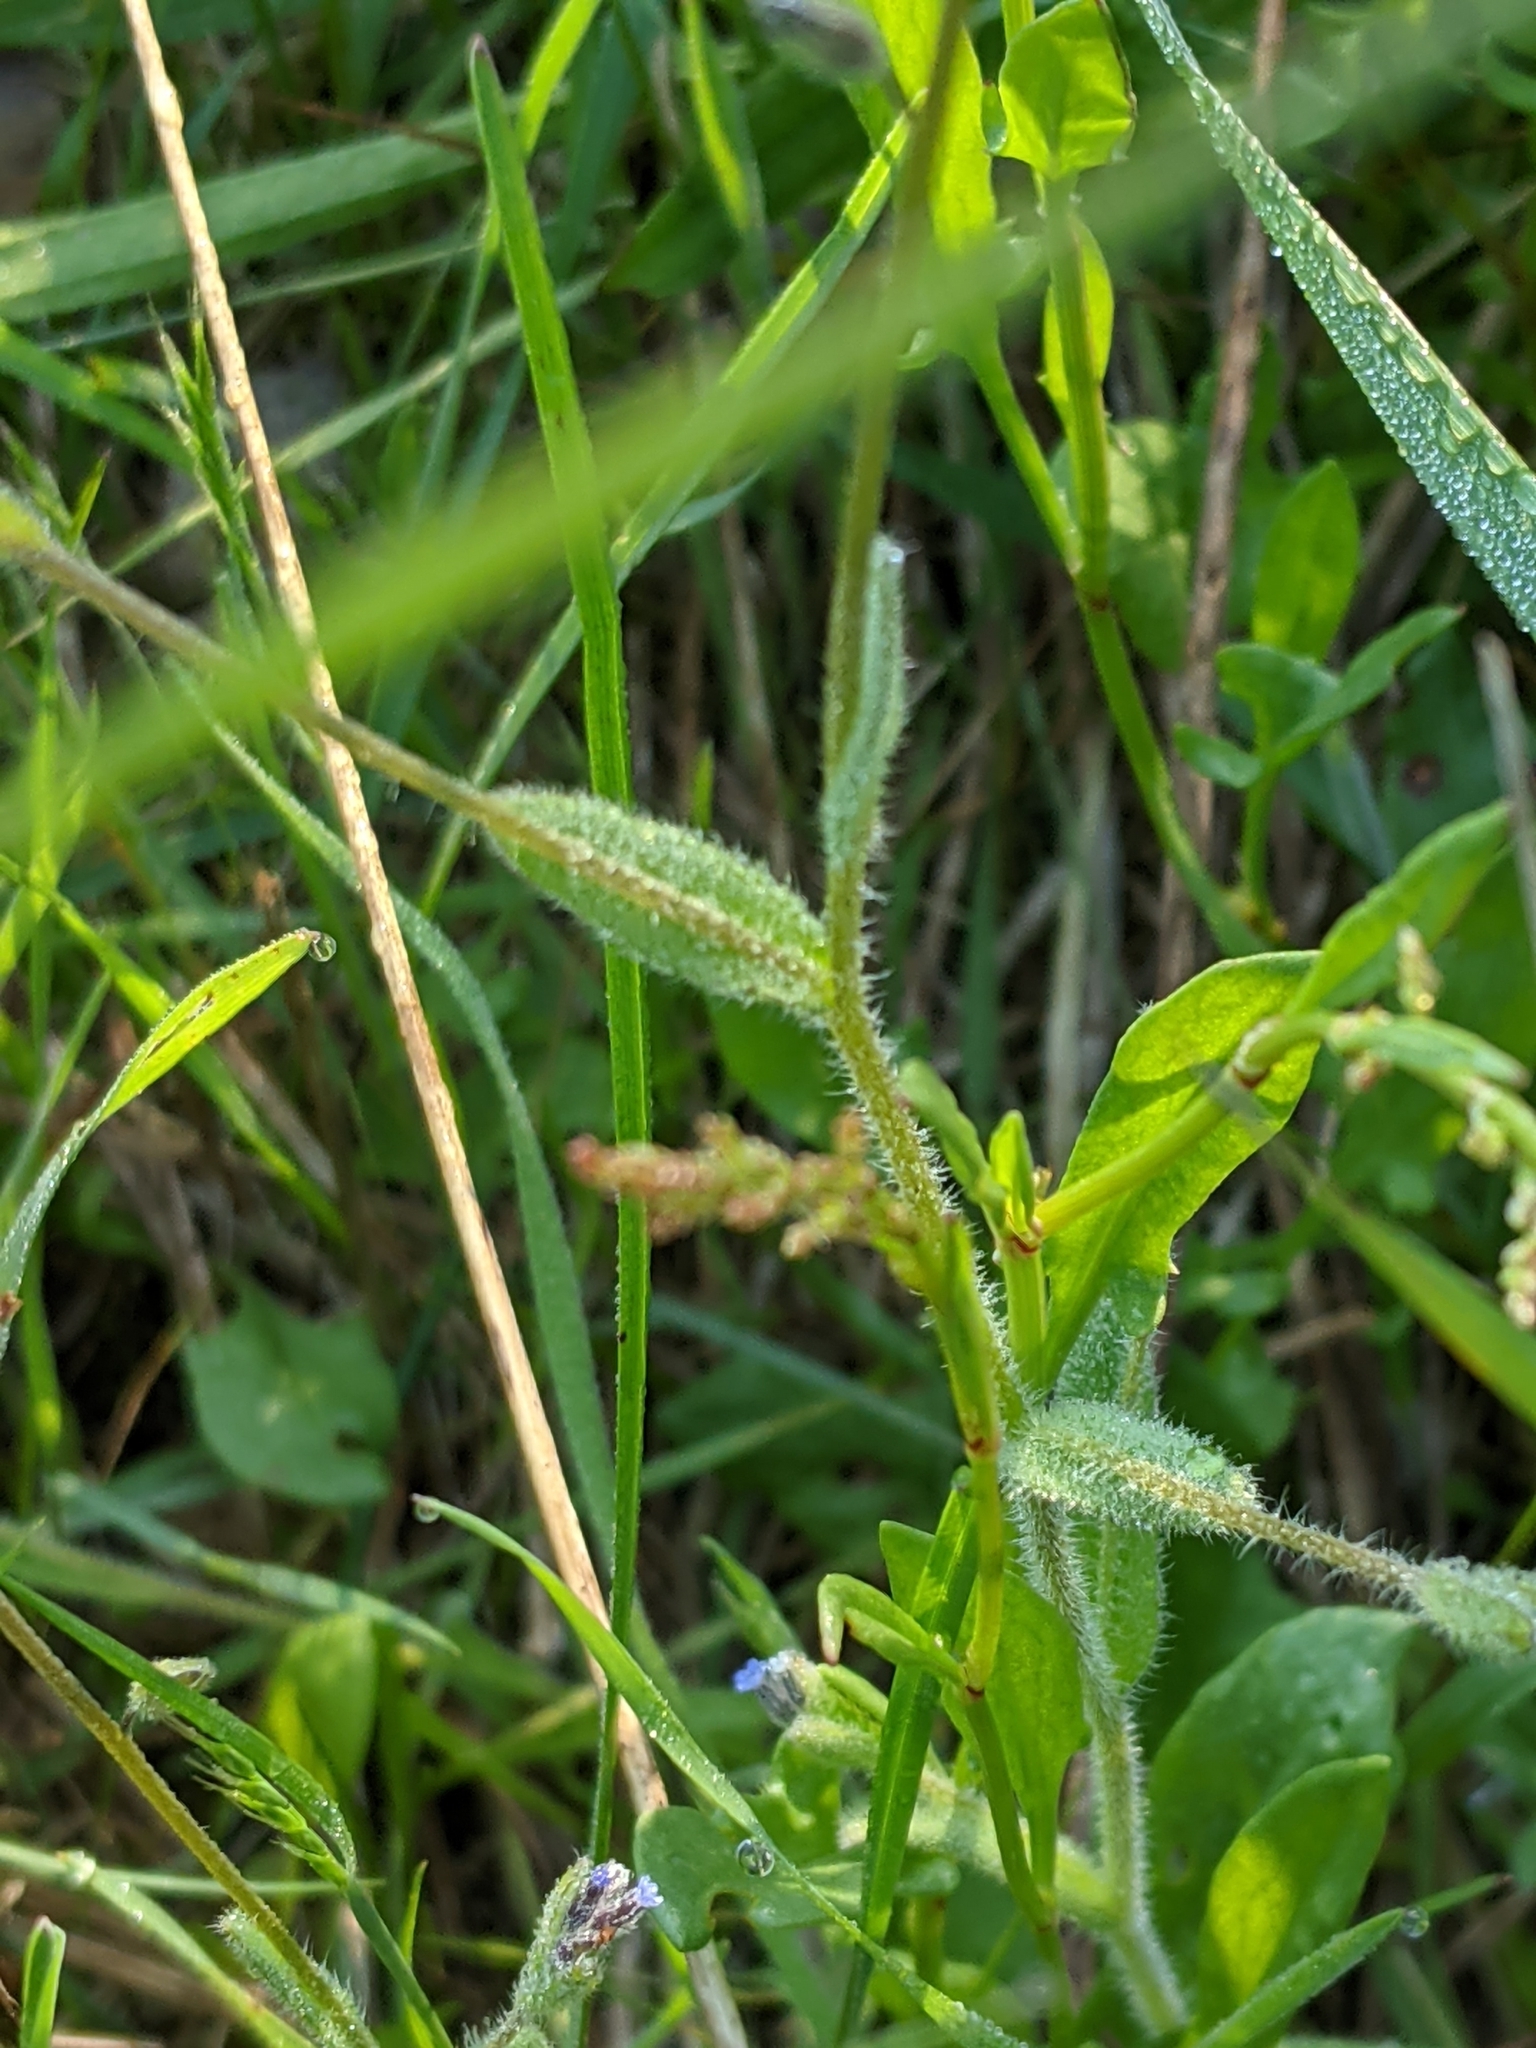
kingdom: Plantae
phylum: Tracheophyta
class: Magnoliopsida
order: Boraginales
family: Boraginaceae
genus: Myosotis
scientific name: Myosotis discolor
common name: Changing forget-me-not
